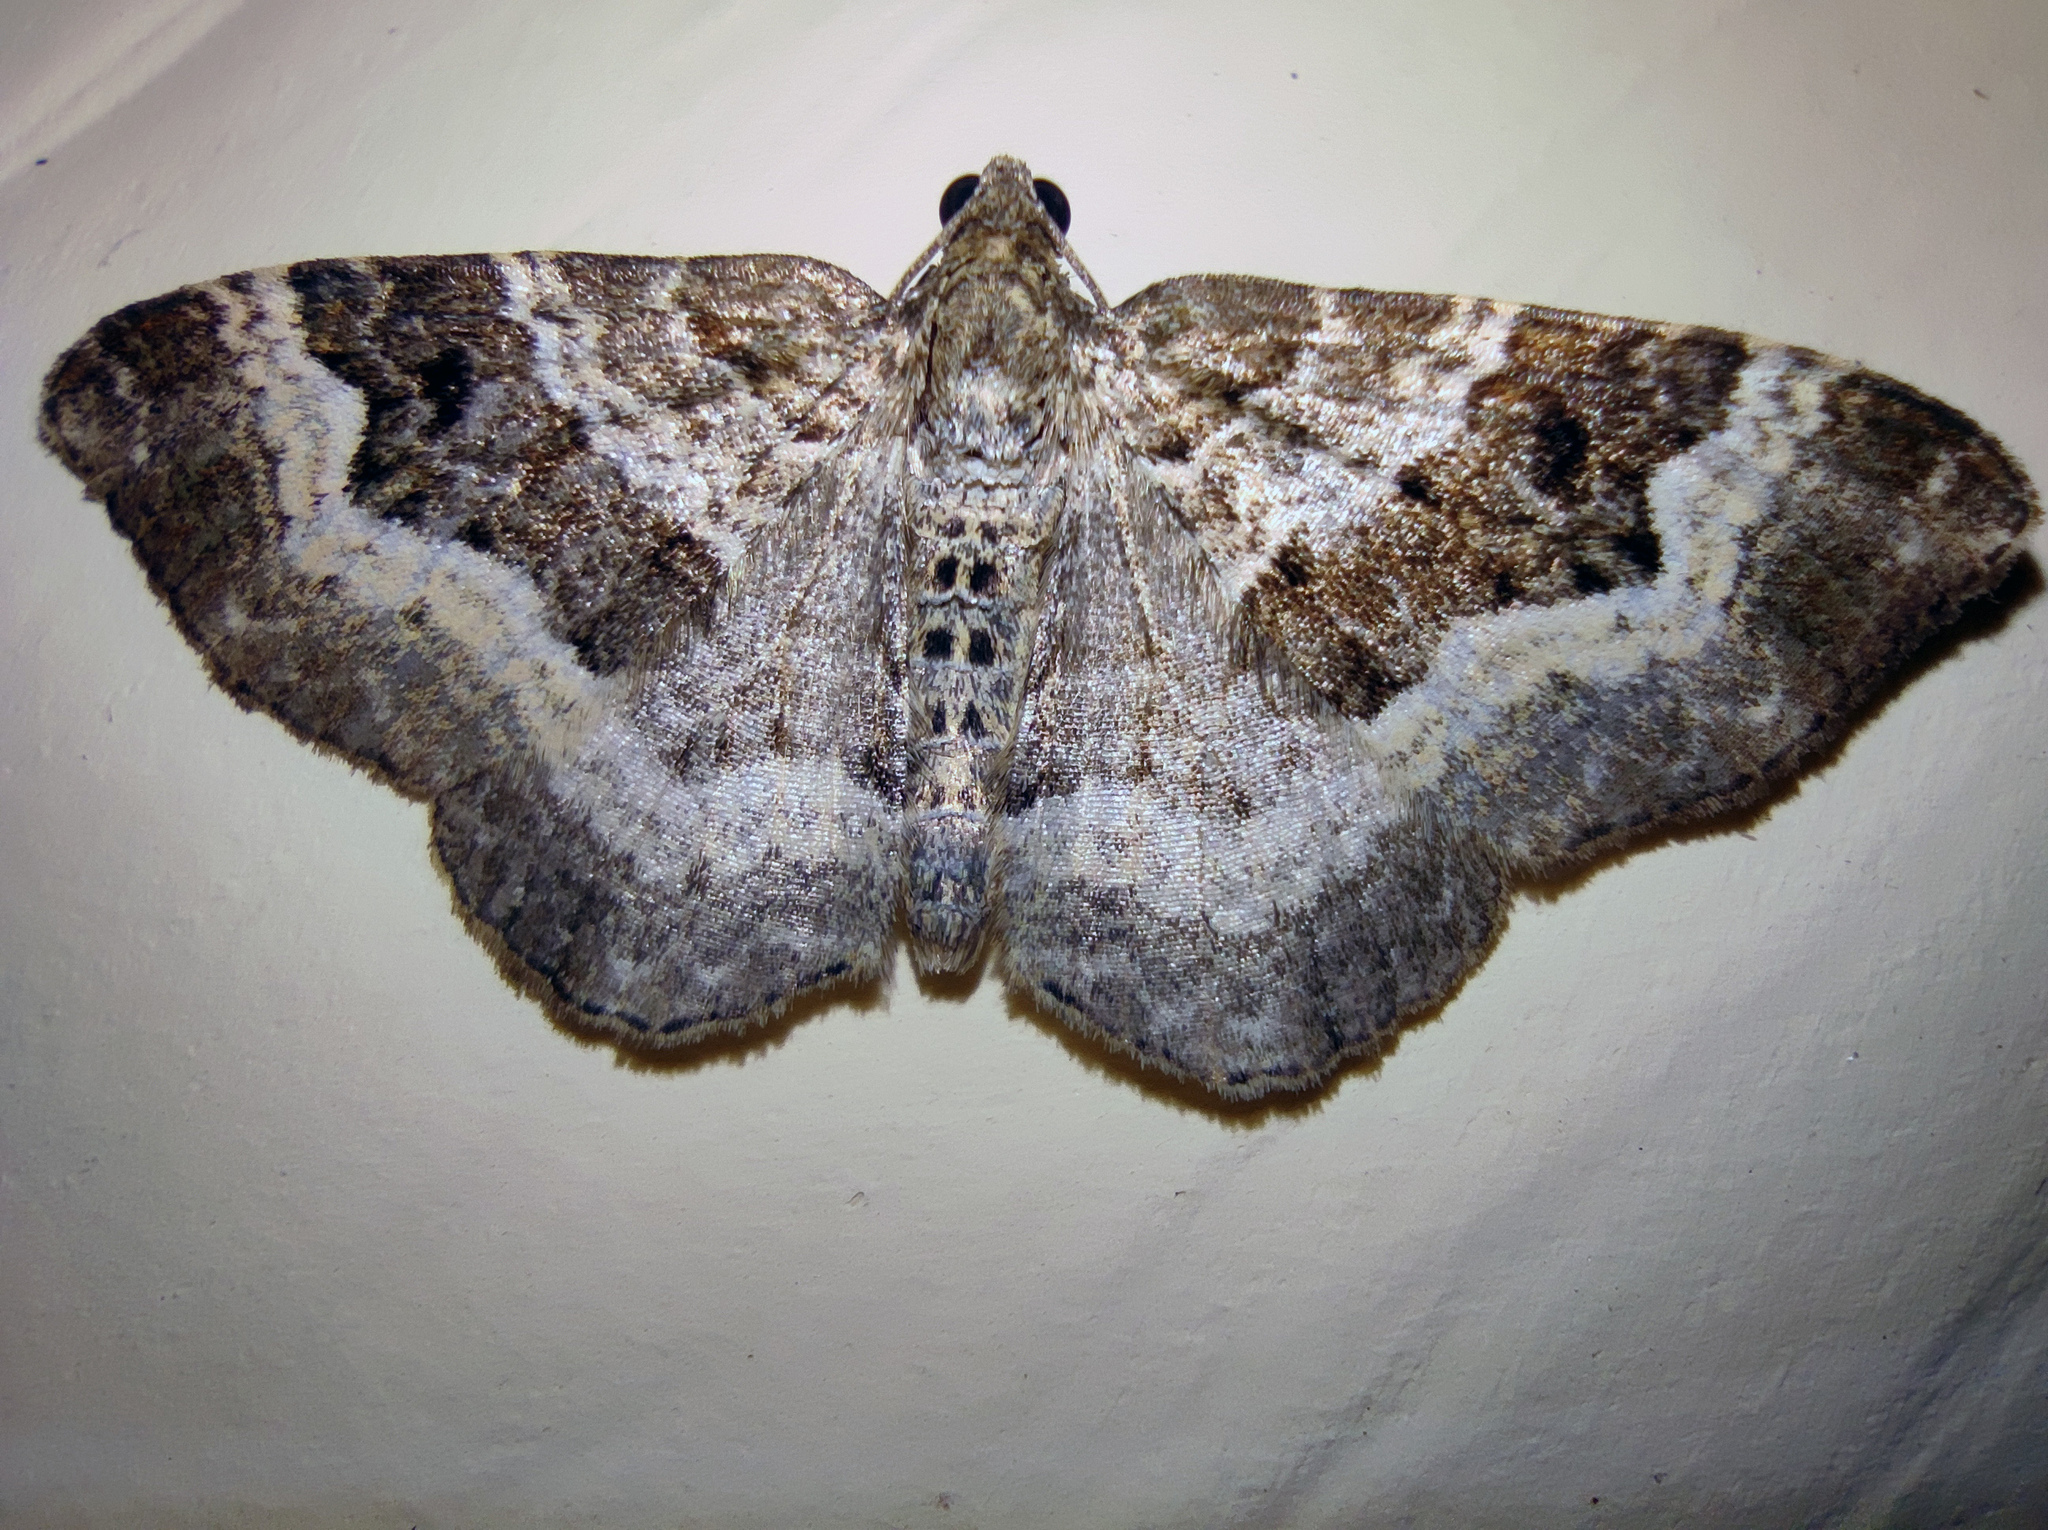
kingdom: Animalia
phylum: Arthropoda
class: Insecta
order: Lepidoptera
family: Geometridae
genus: Epirrhoe
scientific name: Epirrhoe alternata
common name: Common carpet
